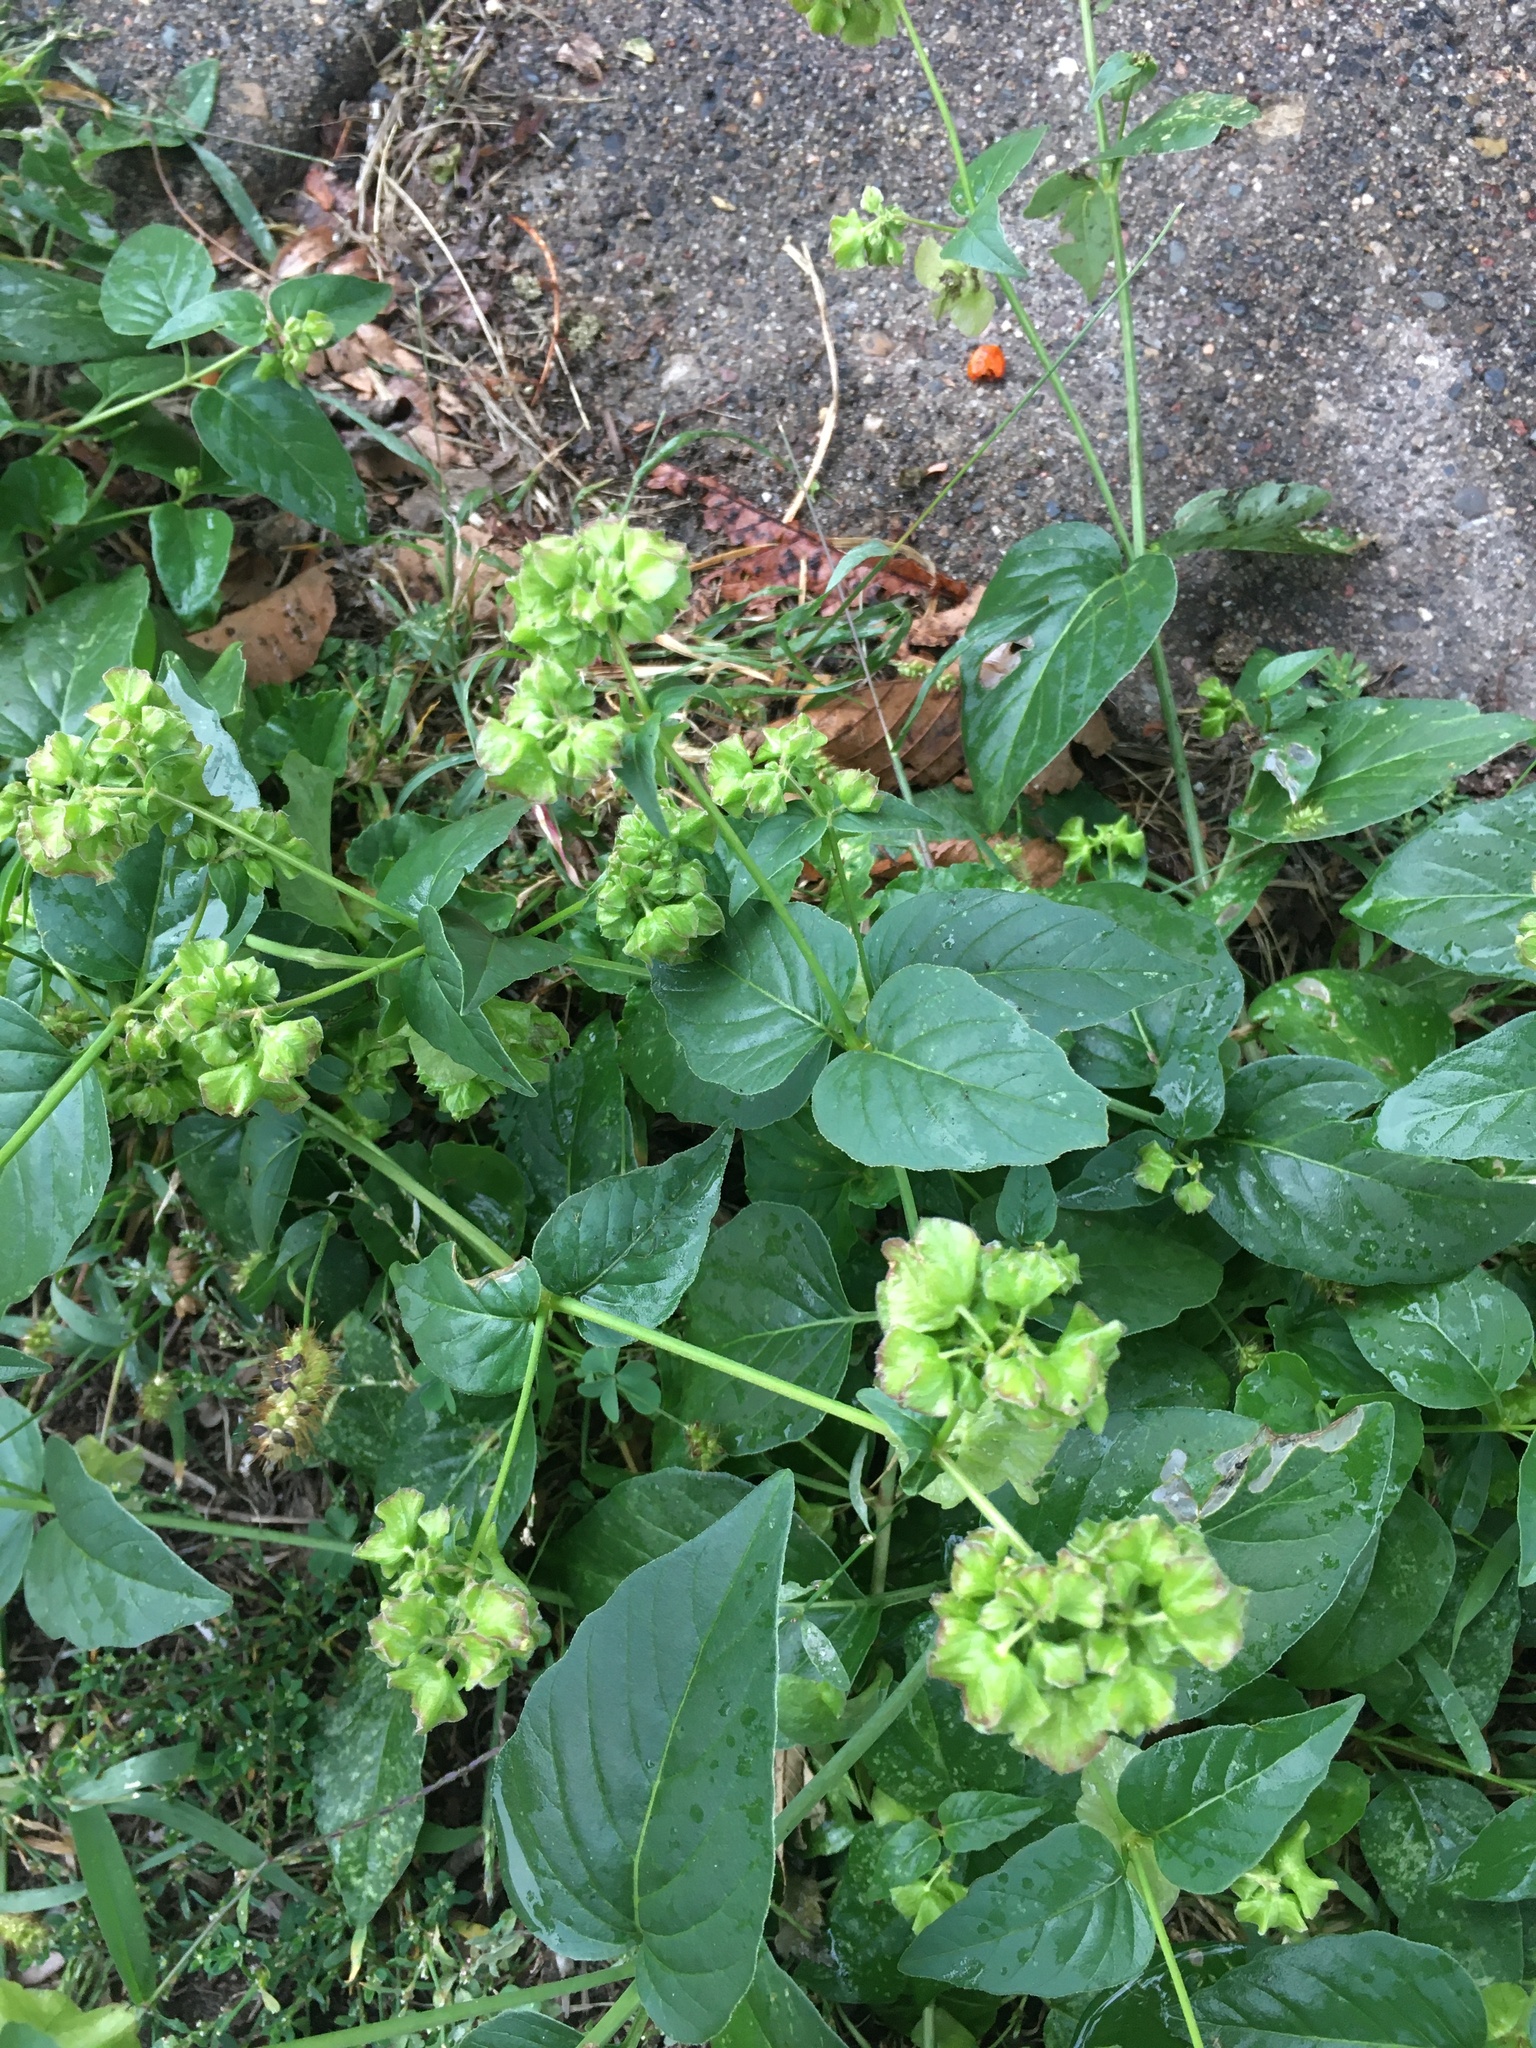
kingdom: Plantae
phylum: Tracheophyta
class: Magnoliopsida
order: Caryophyllales
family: Nyctaginaceae
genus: Mirabilis
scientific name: Mirabilis nyctaginea
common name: Umbrella wort
